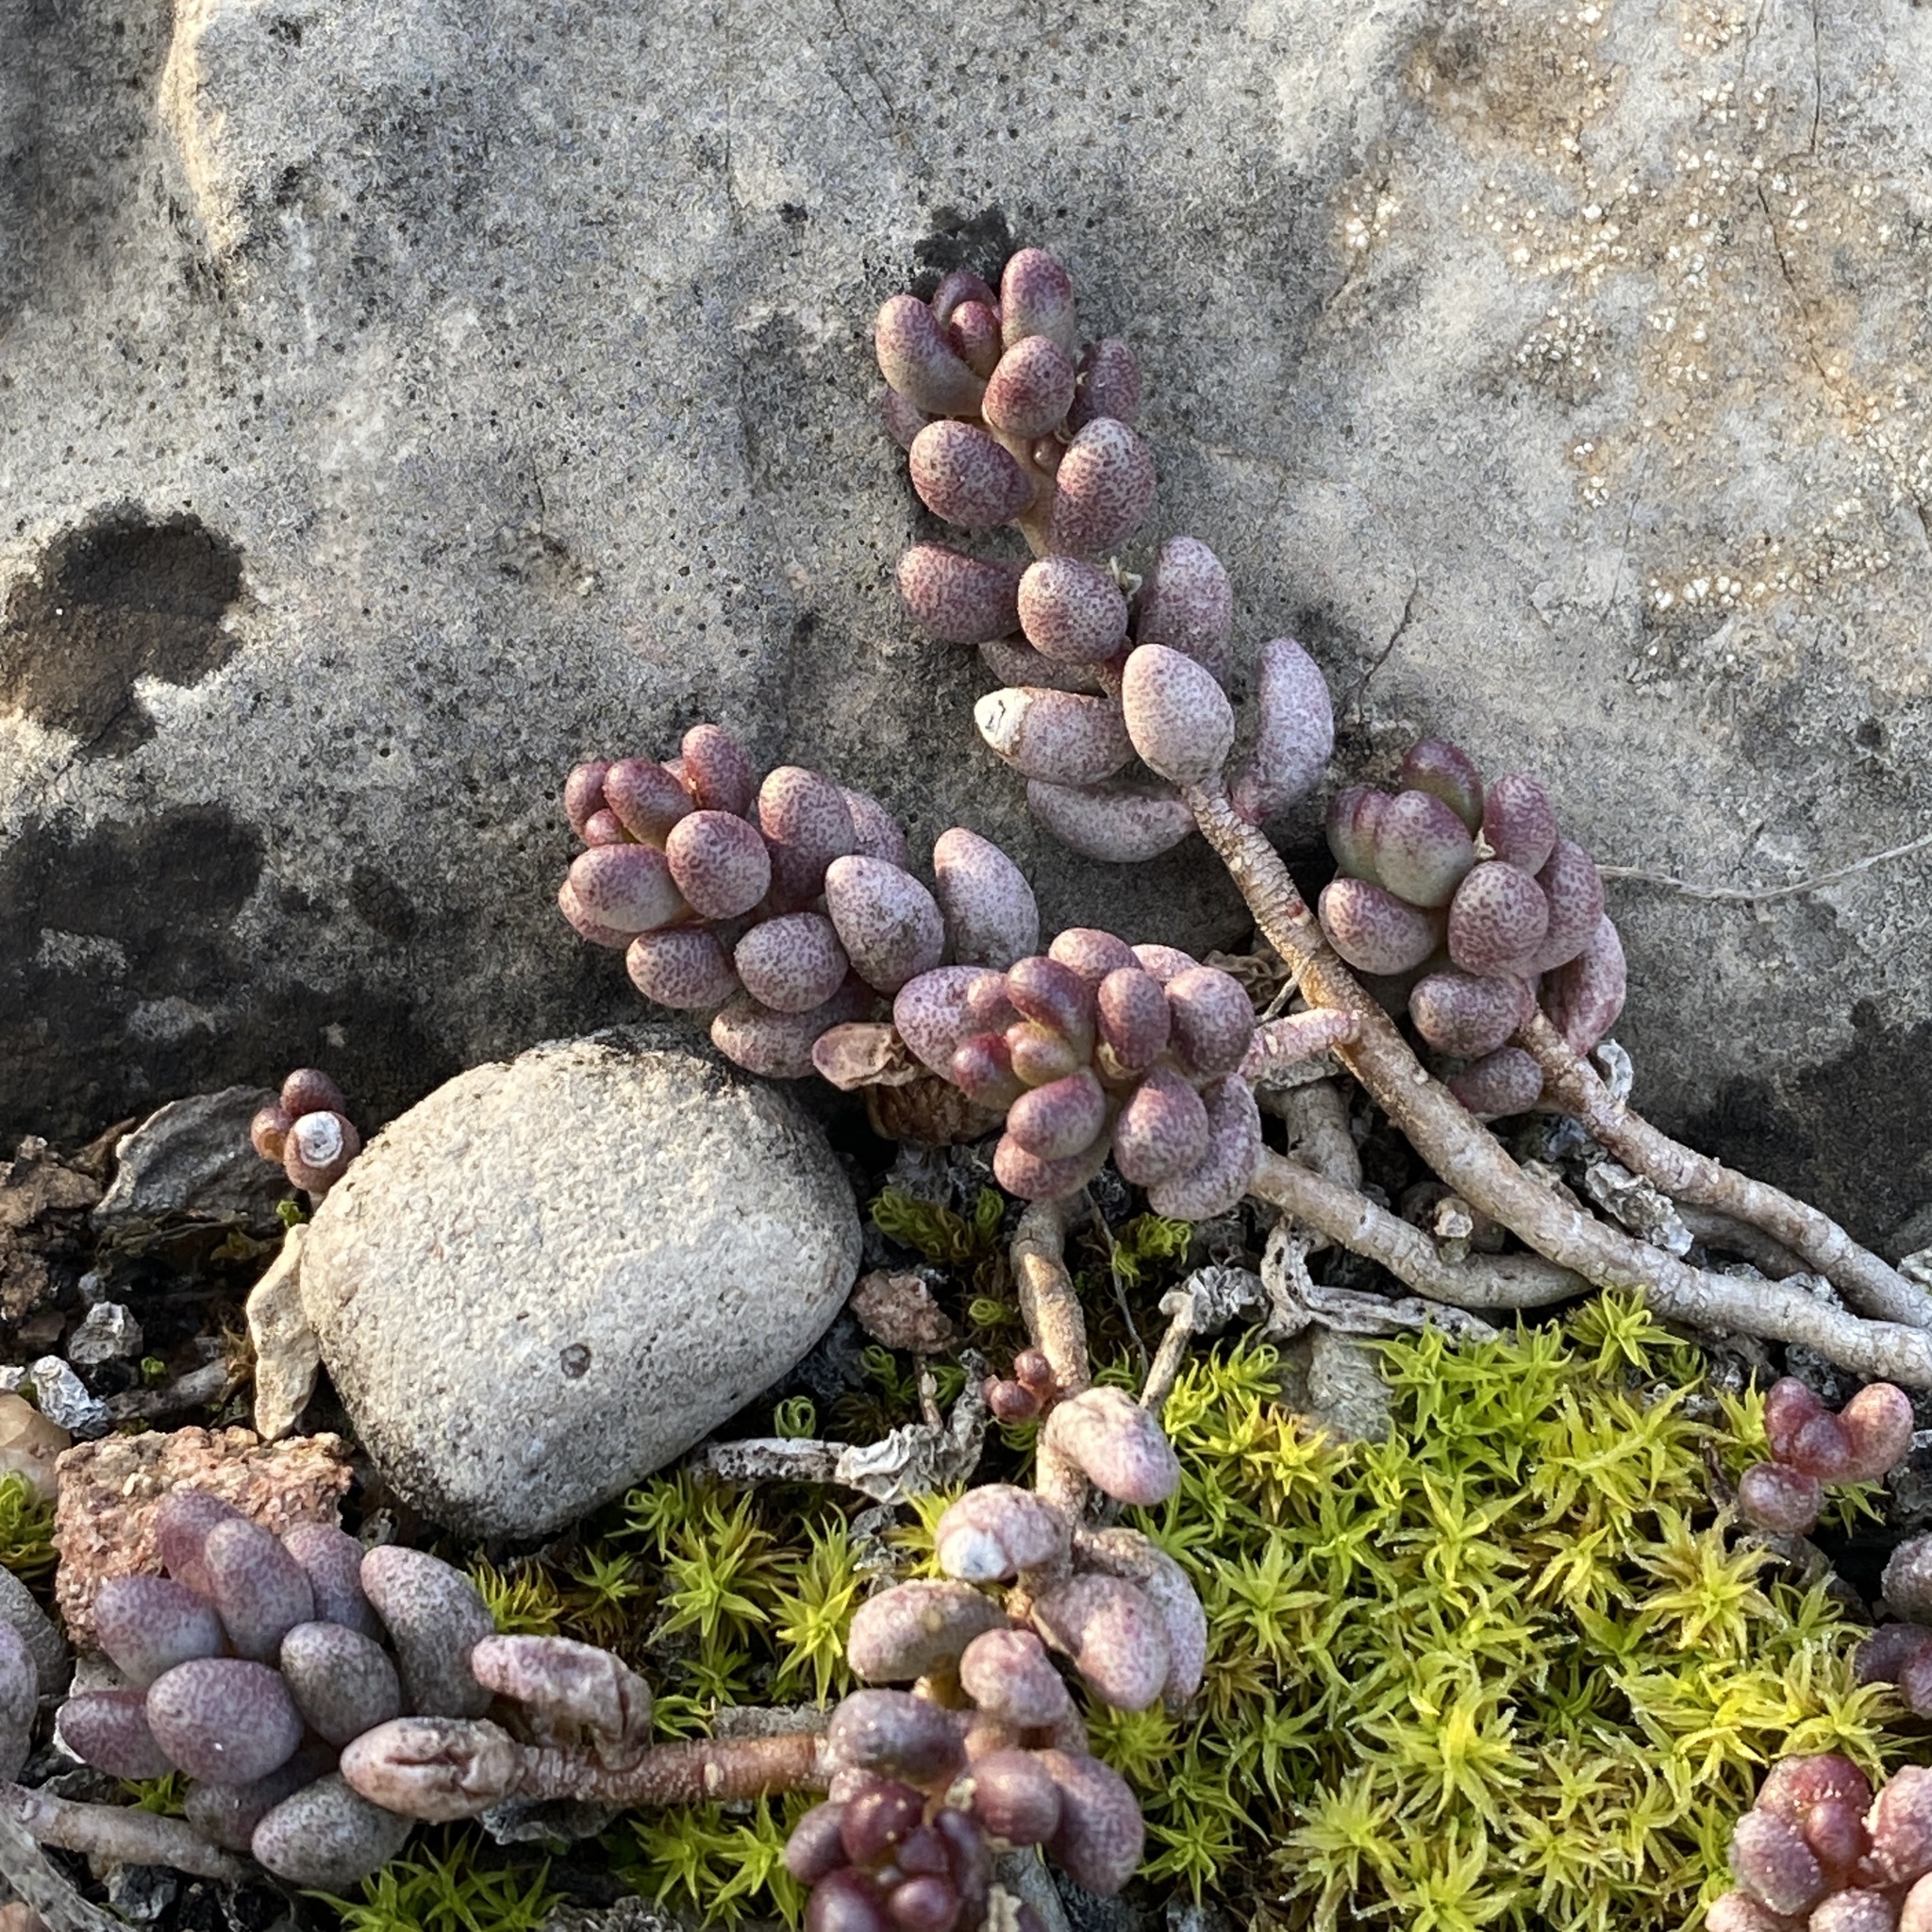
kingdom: Plantae
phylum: Tracheophyta
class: Magnoliopsida
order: Saxifragales
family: Crassulaceae
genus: Sedum
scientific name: Sedum album
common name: White stonecrop
